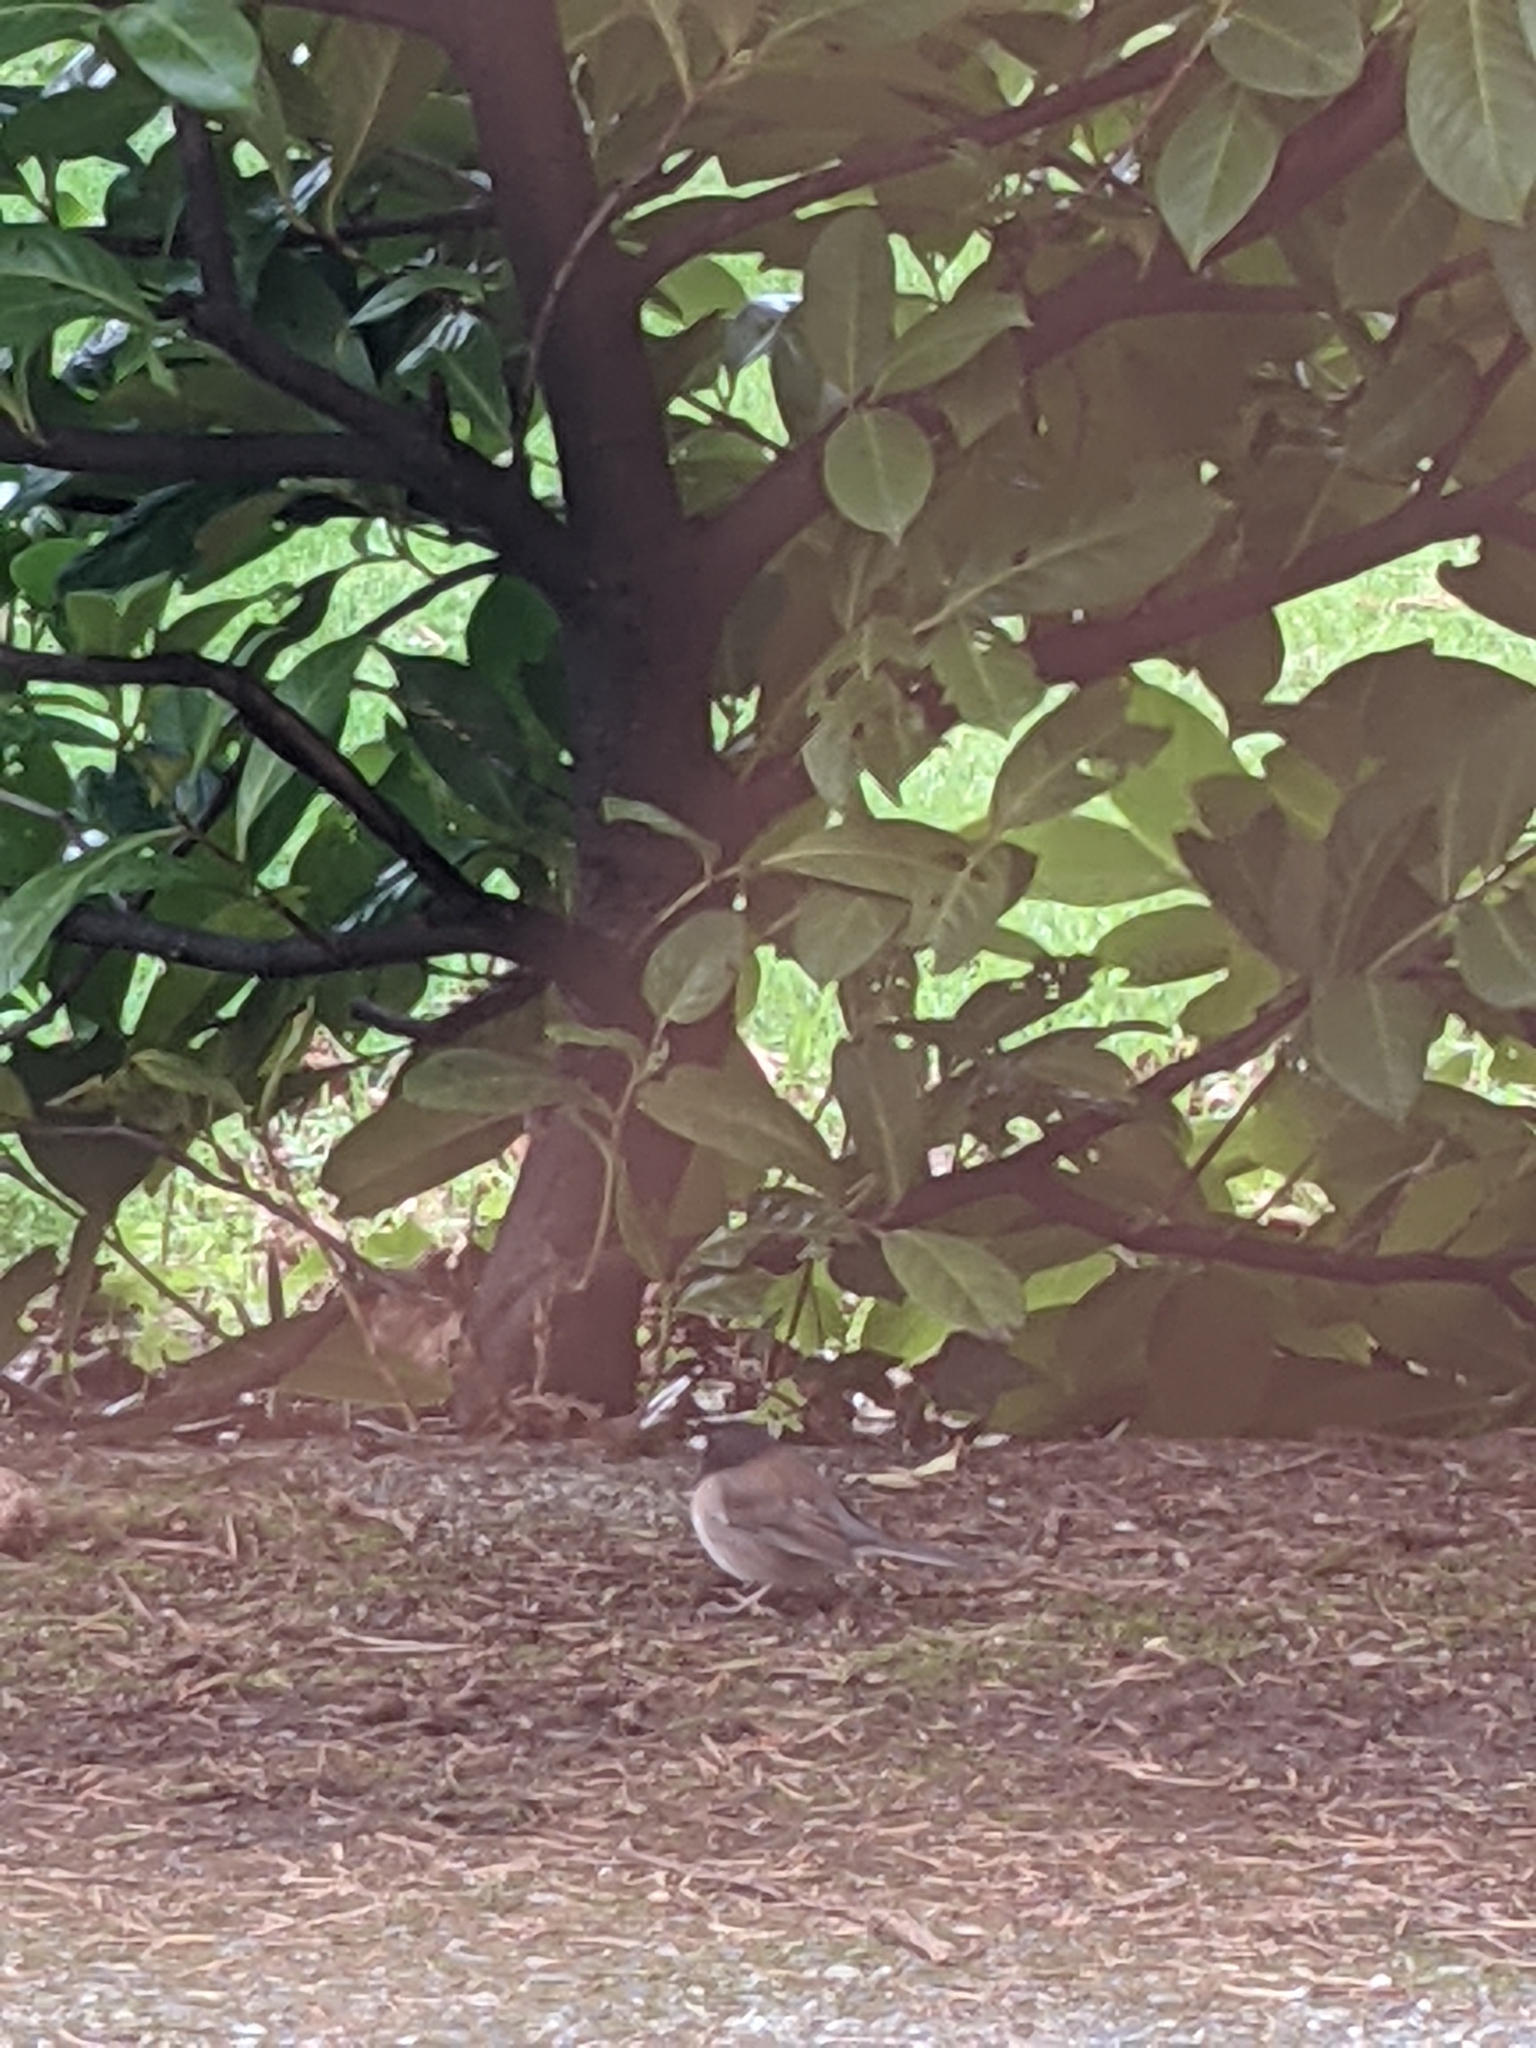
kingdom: Animalia
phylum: Chordata
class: Aves
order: Passeriformes
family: Passerellidae
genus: Junco
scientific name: Junco hyemalis
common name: Dark-eyed junco
